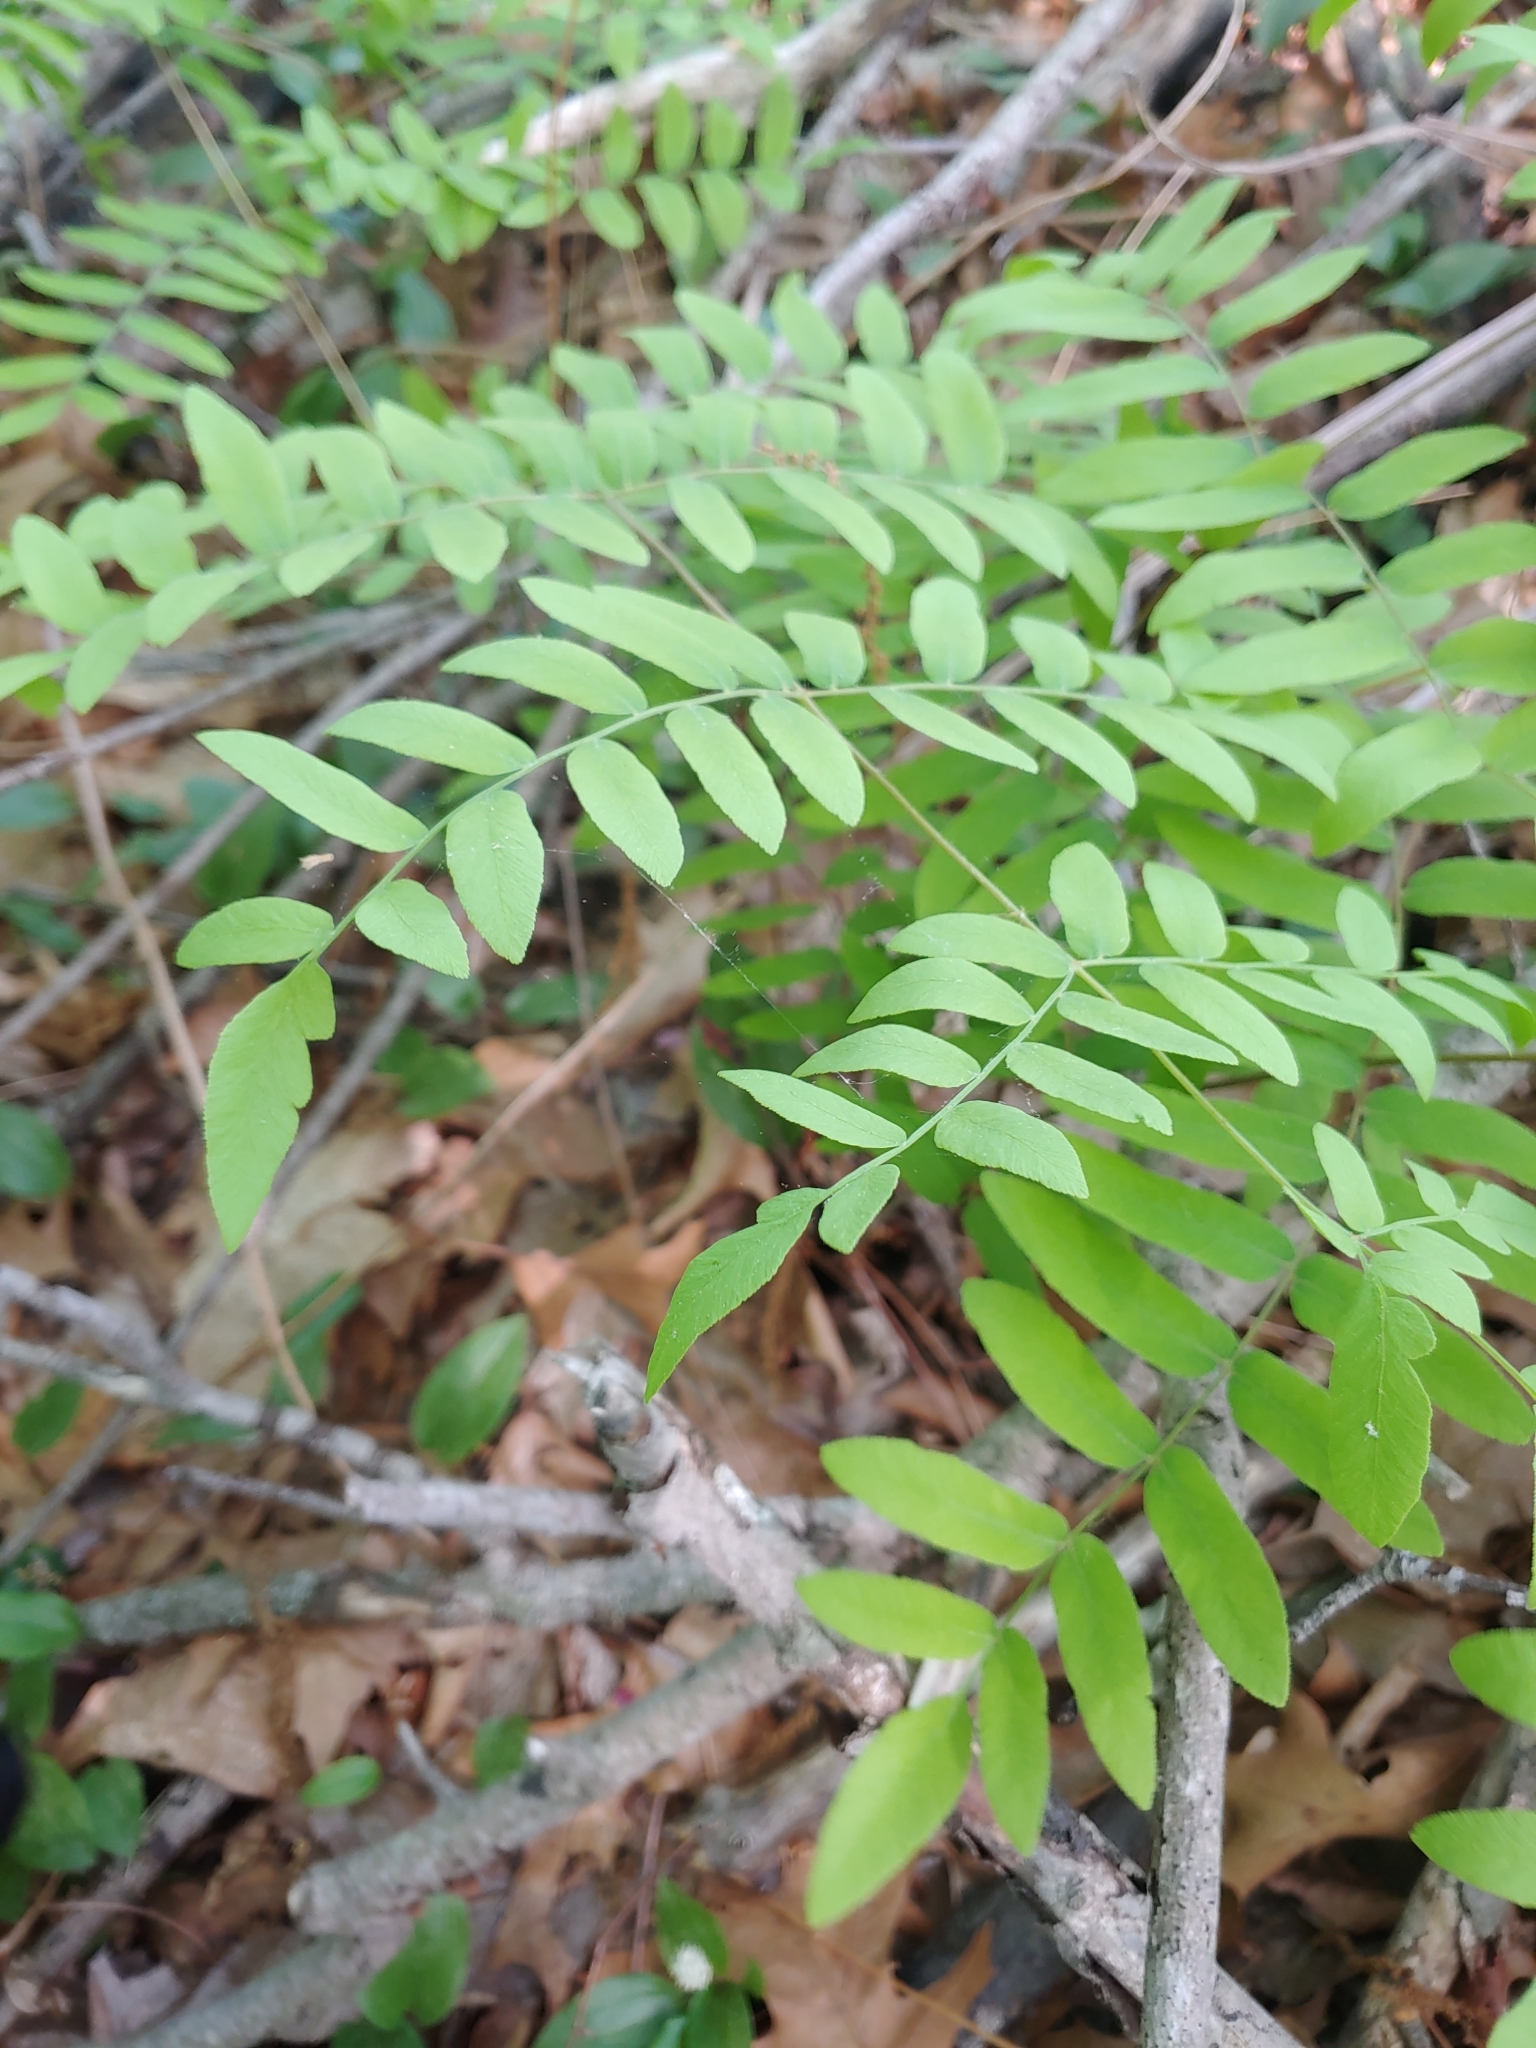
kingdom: Plantae
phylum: Tracheophyta
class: Polypodiopsida
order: Osmundales
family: Osmundaceae
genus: Osmunda
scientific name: Osmunda spectabilis
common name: American royal fern
